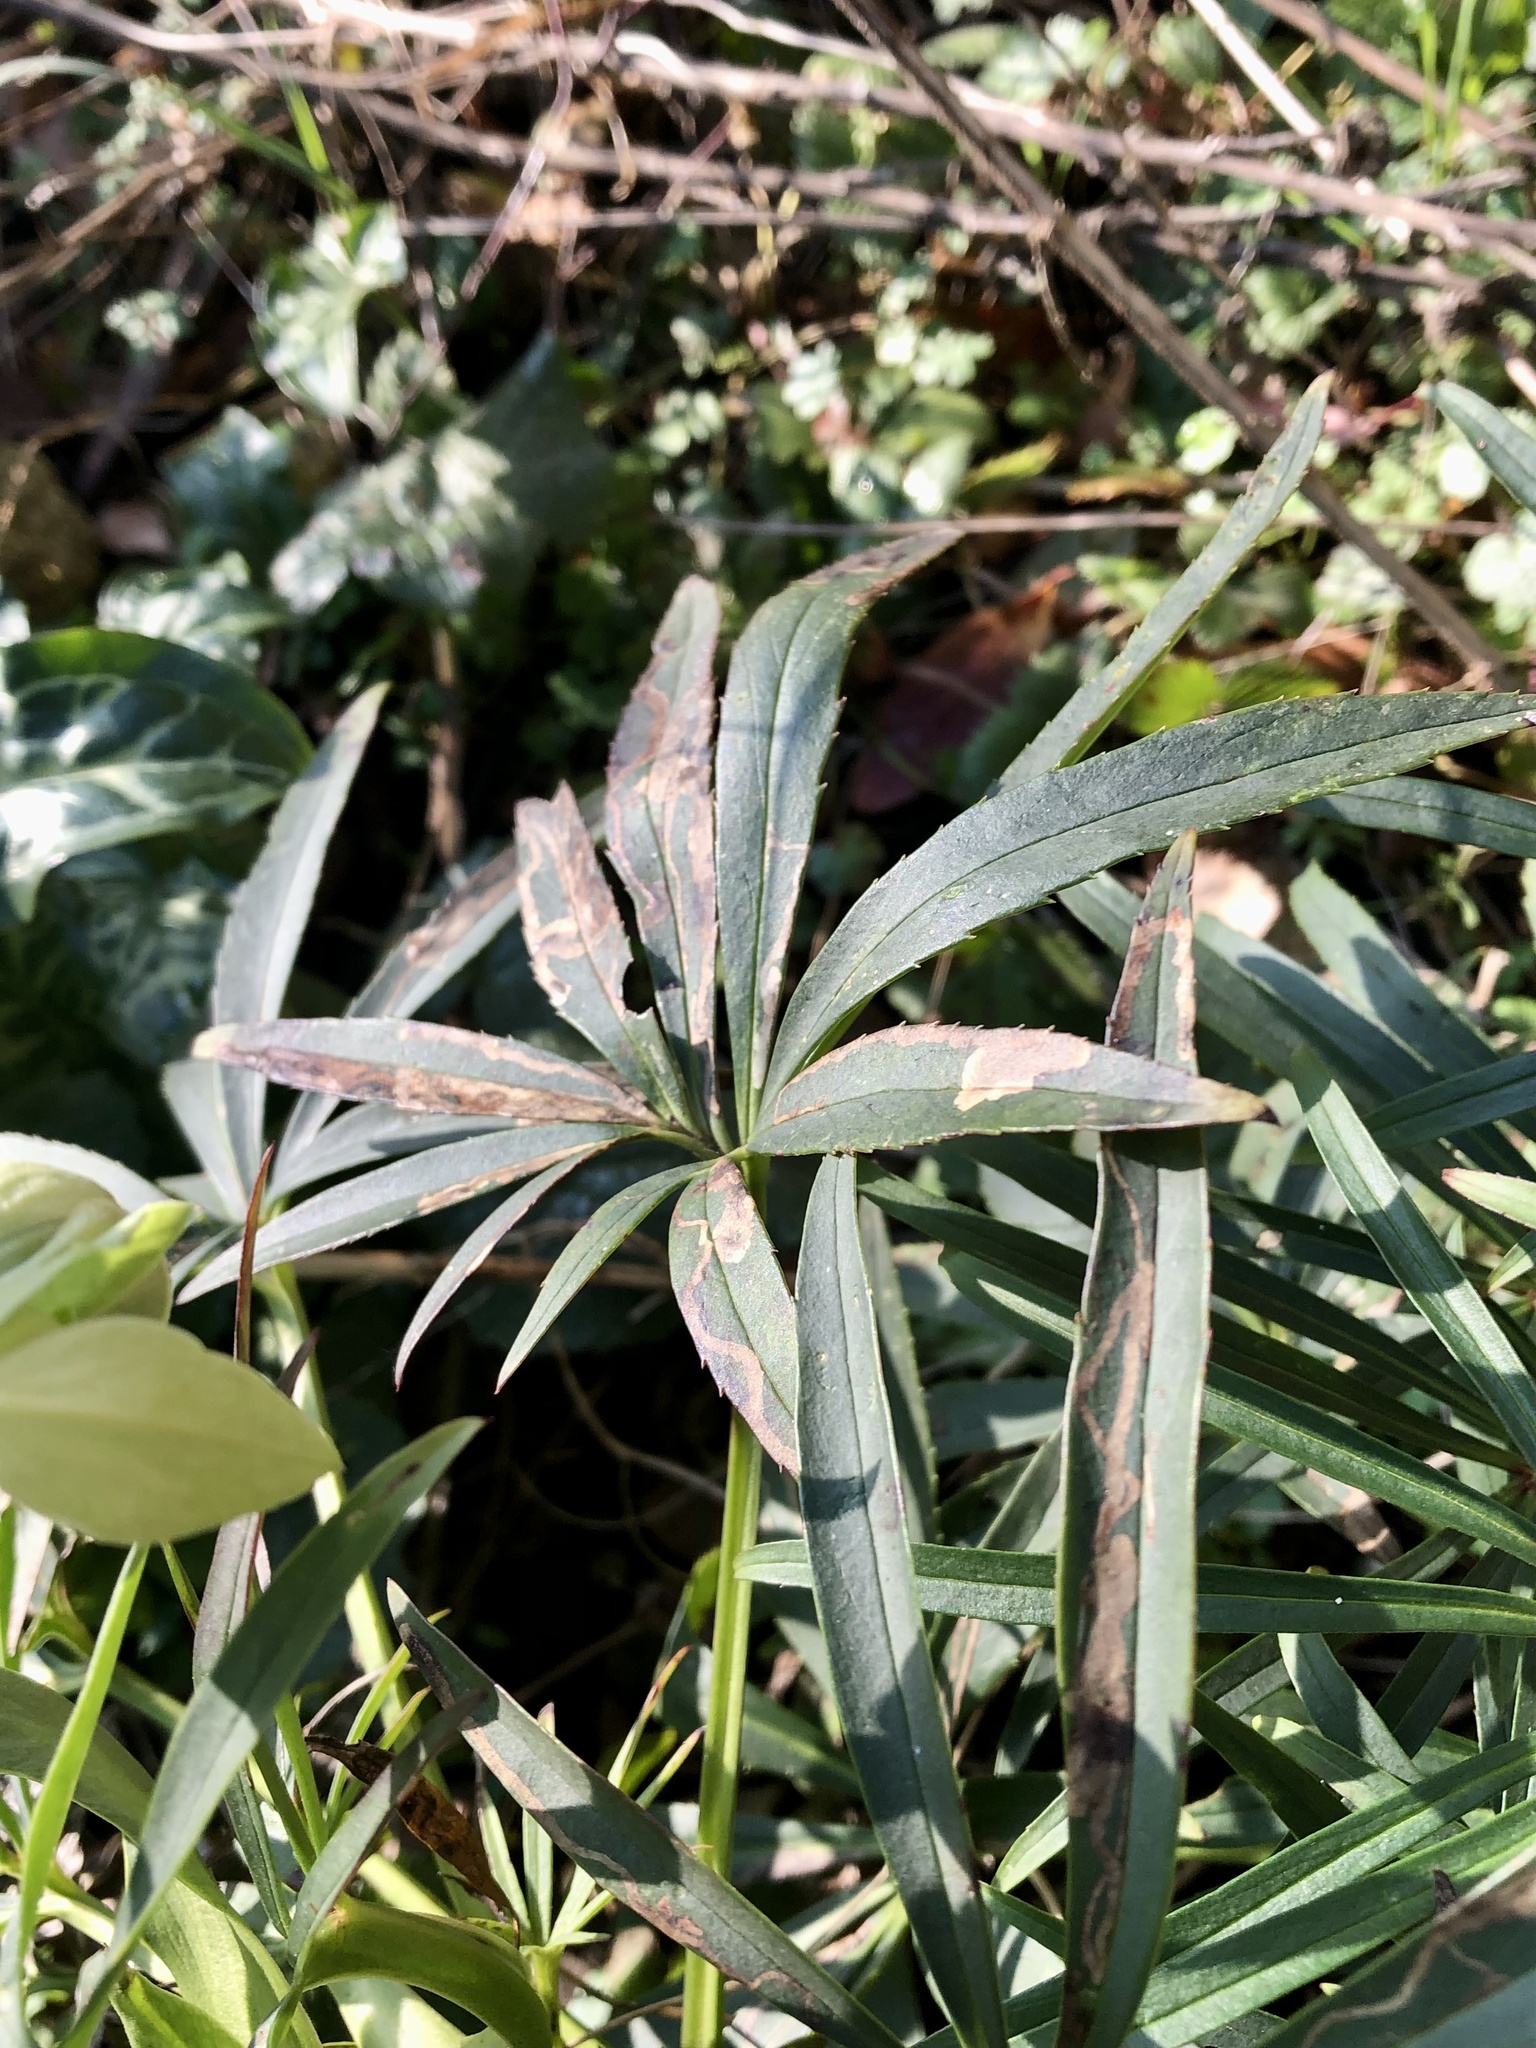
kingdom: Plantae
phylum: Tracheophyta
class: Magnoliopsida
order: Ranunculales
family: Ranunculaceae
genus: Helleborus
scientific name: Helleborus foetidus
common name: Stinking hellebore
